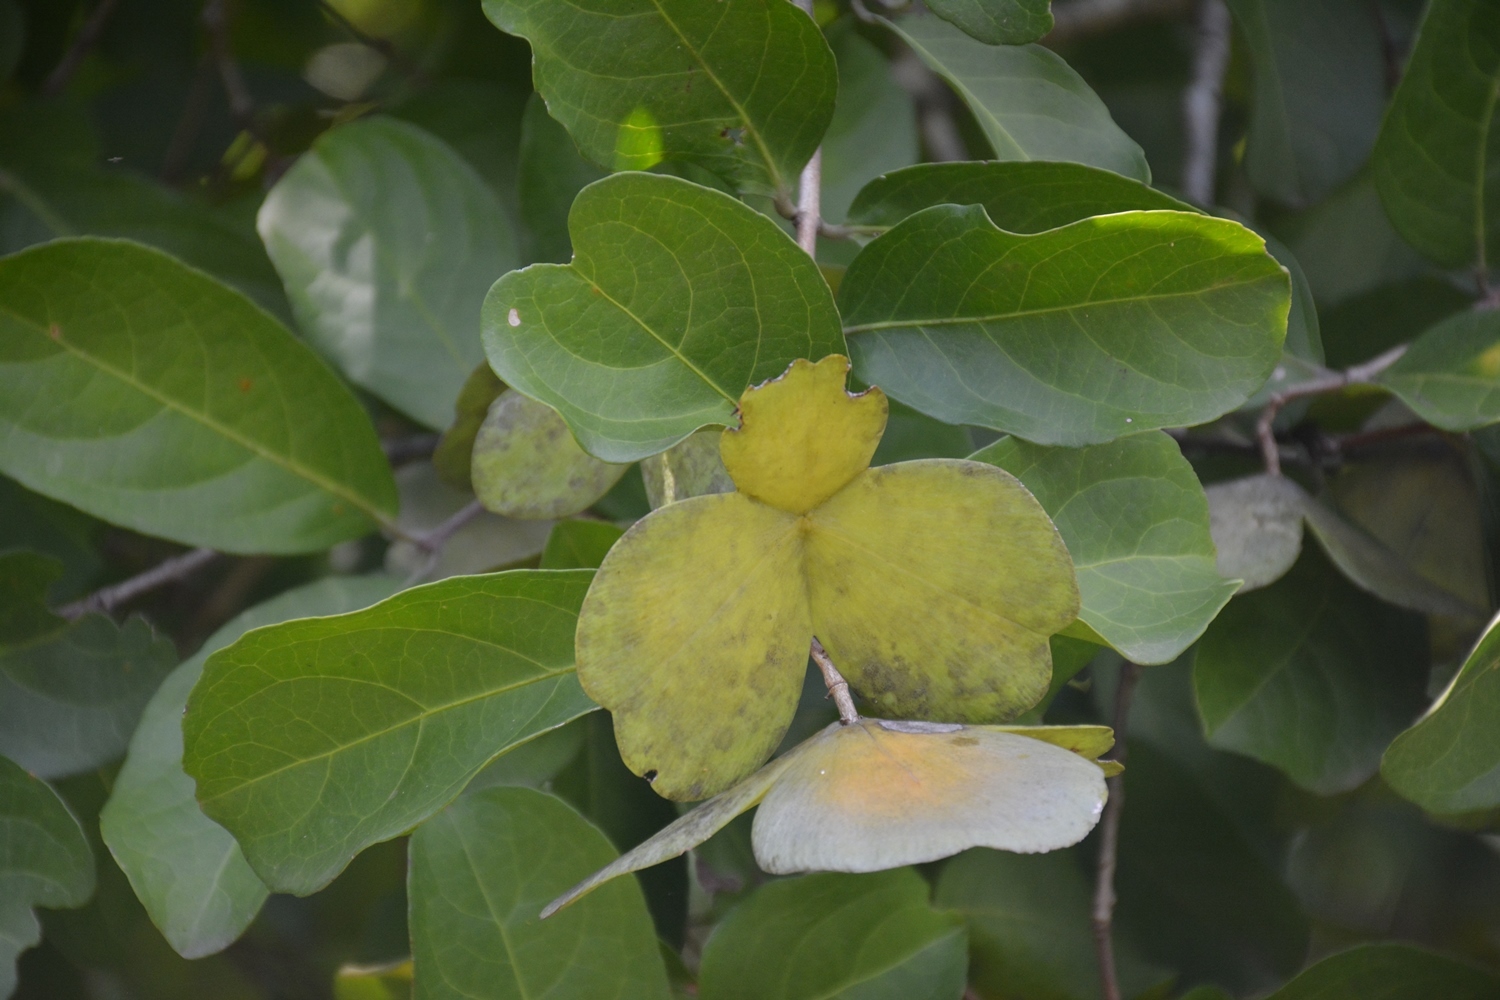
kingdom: Plantae
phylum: Tracheophyta
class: Magnoliopsida
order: Celastrales
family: Celastraceae
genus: Semialarium
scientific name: Semialarium mexicanum
